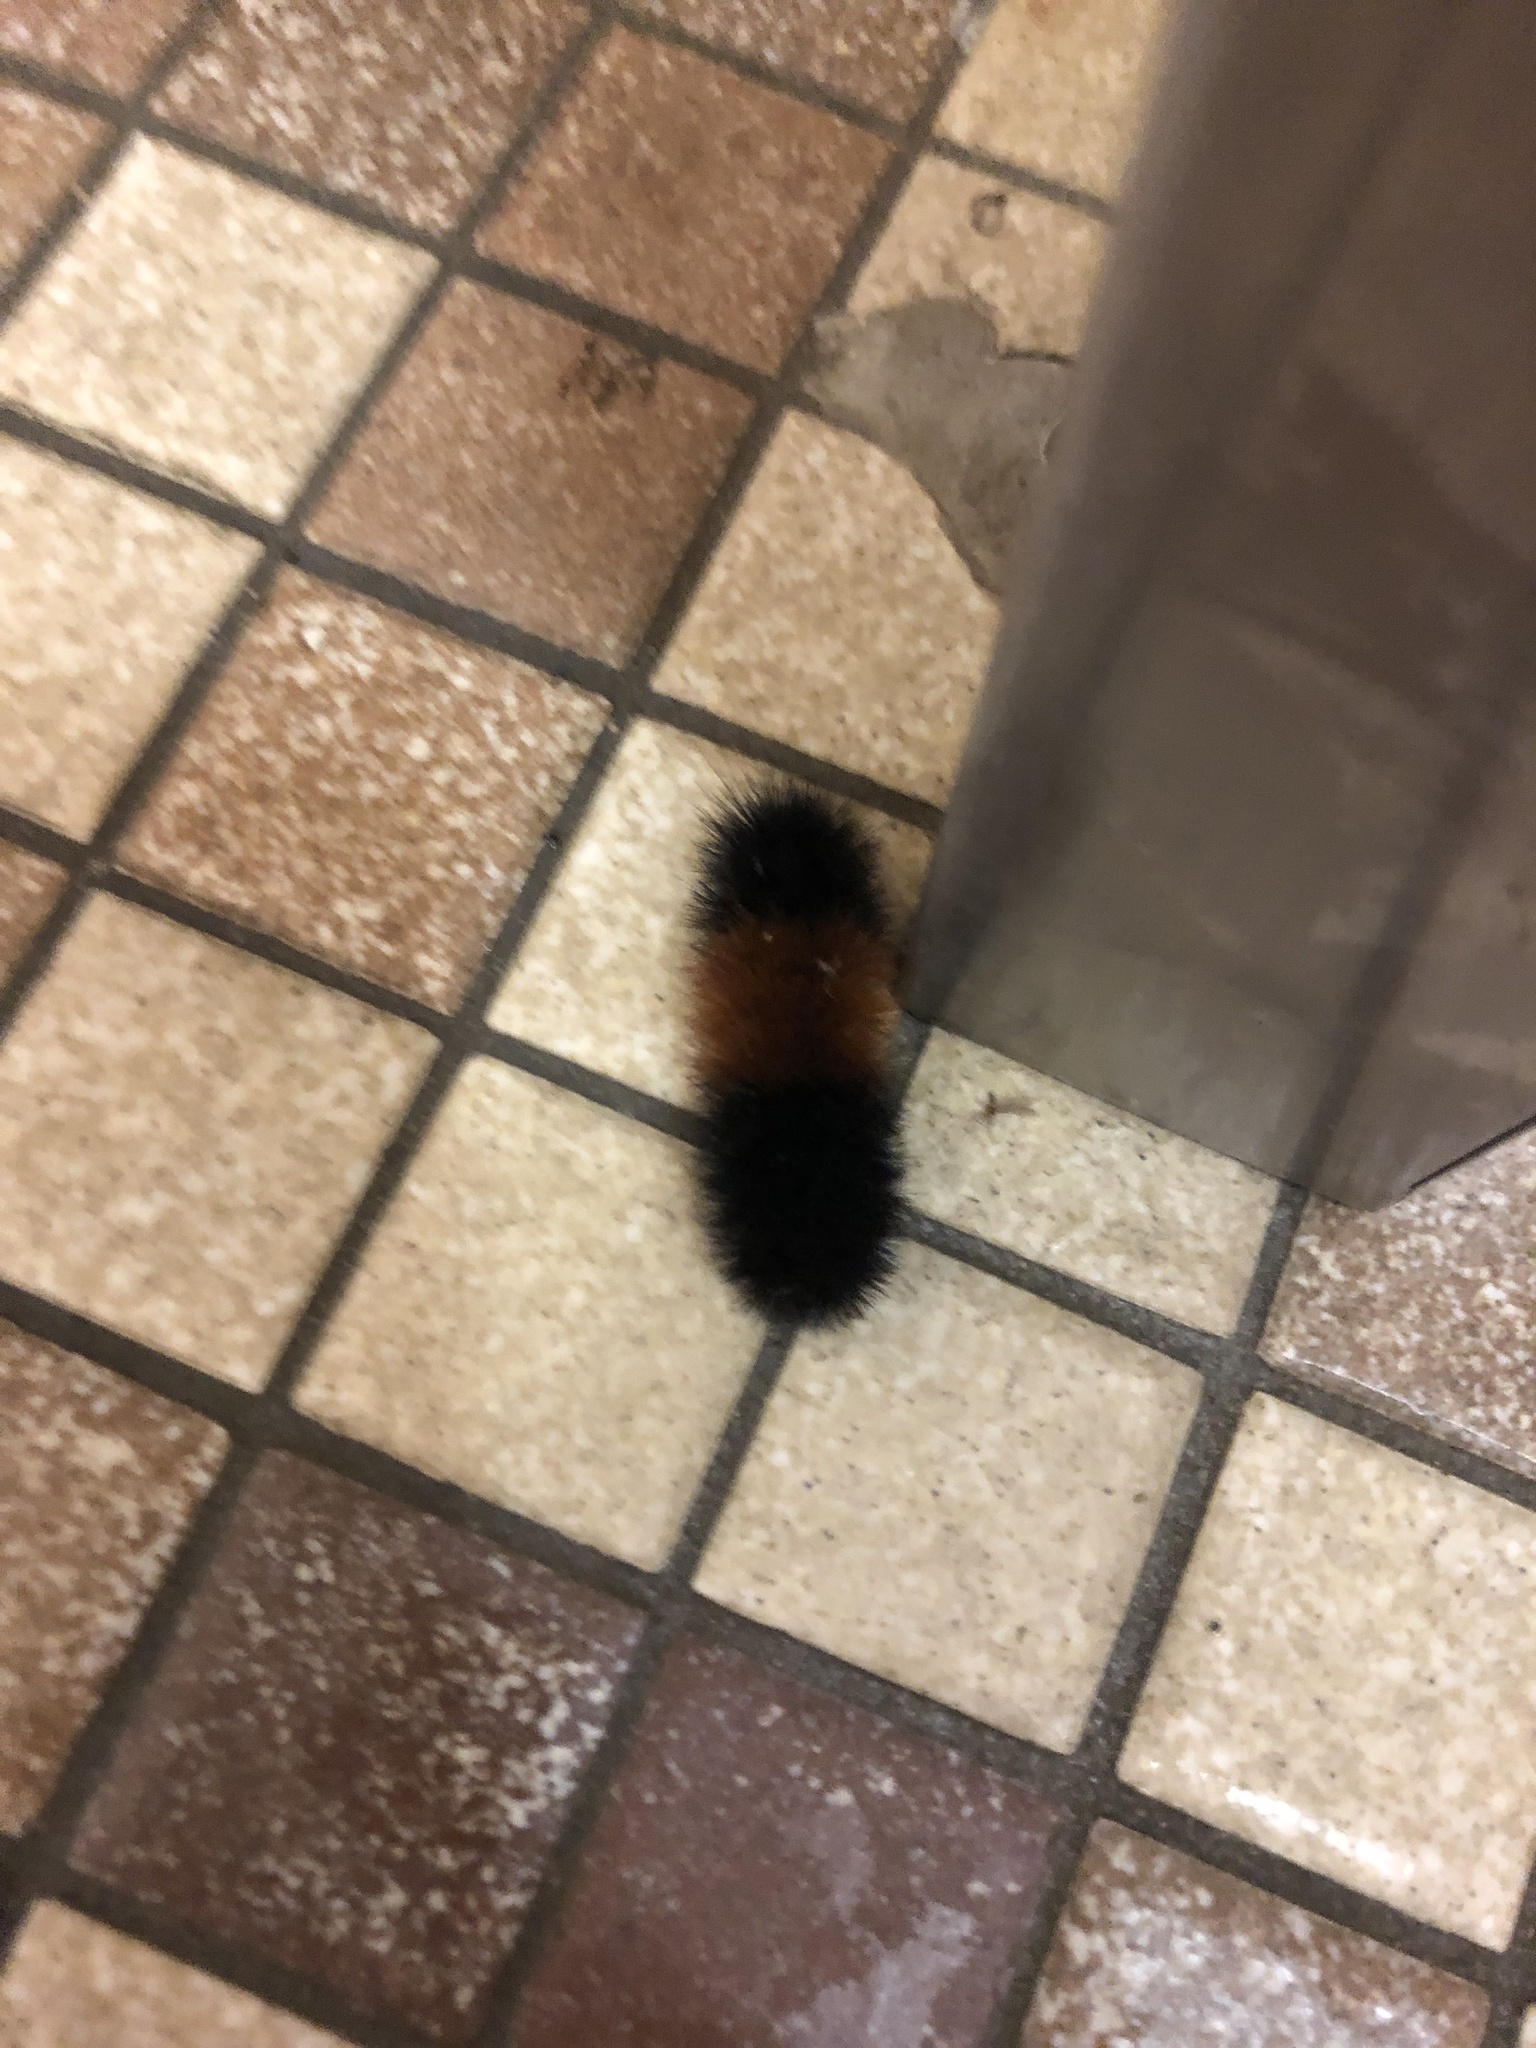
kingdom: Animalia
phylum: Arthropoda
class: Insecta
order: Lepidoptera
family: Erebidae
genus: Pyrrharctia
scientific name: Pyrrharctia isabella
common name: Isabella tiger moth
